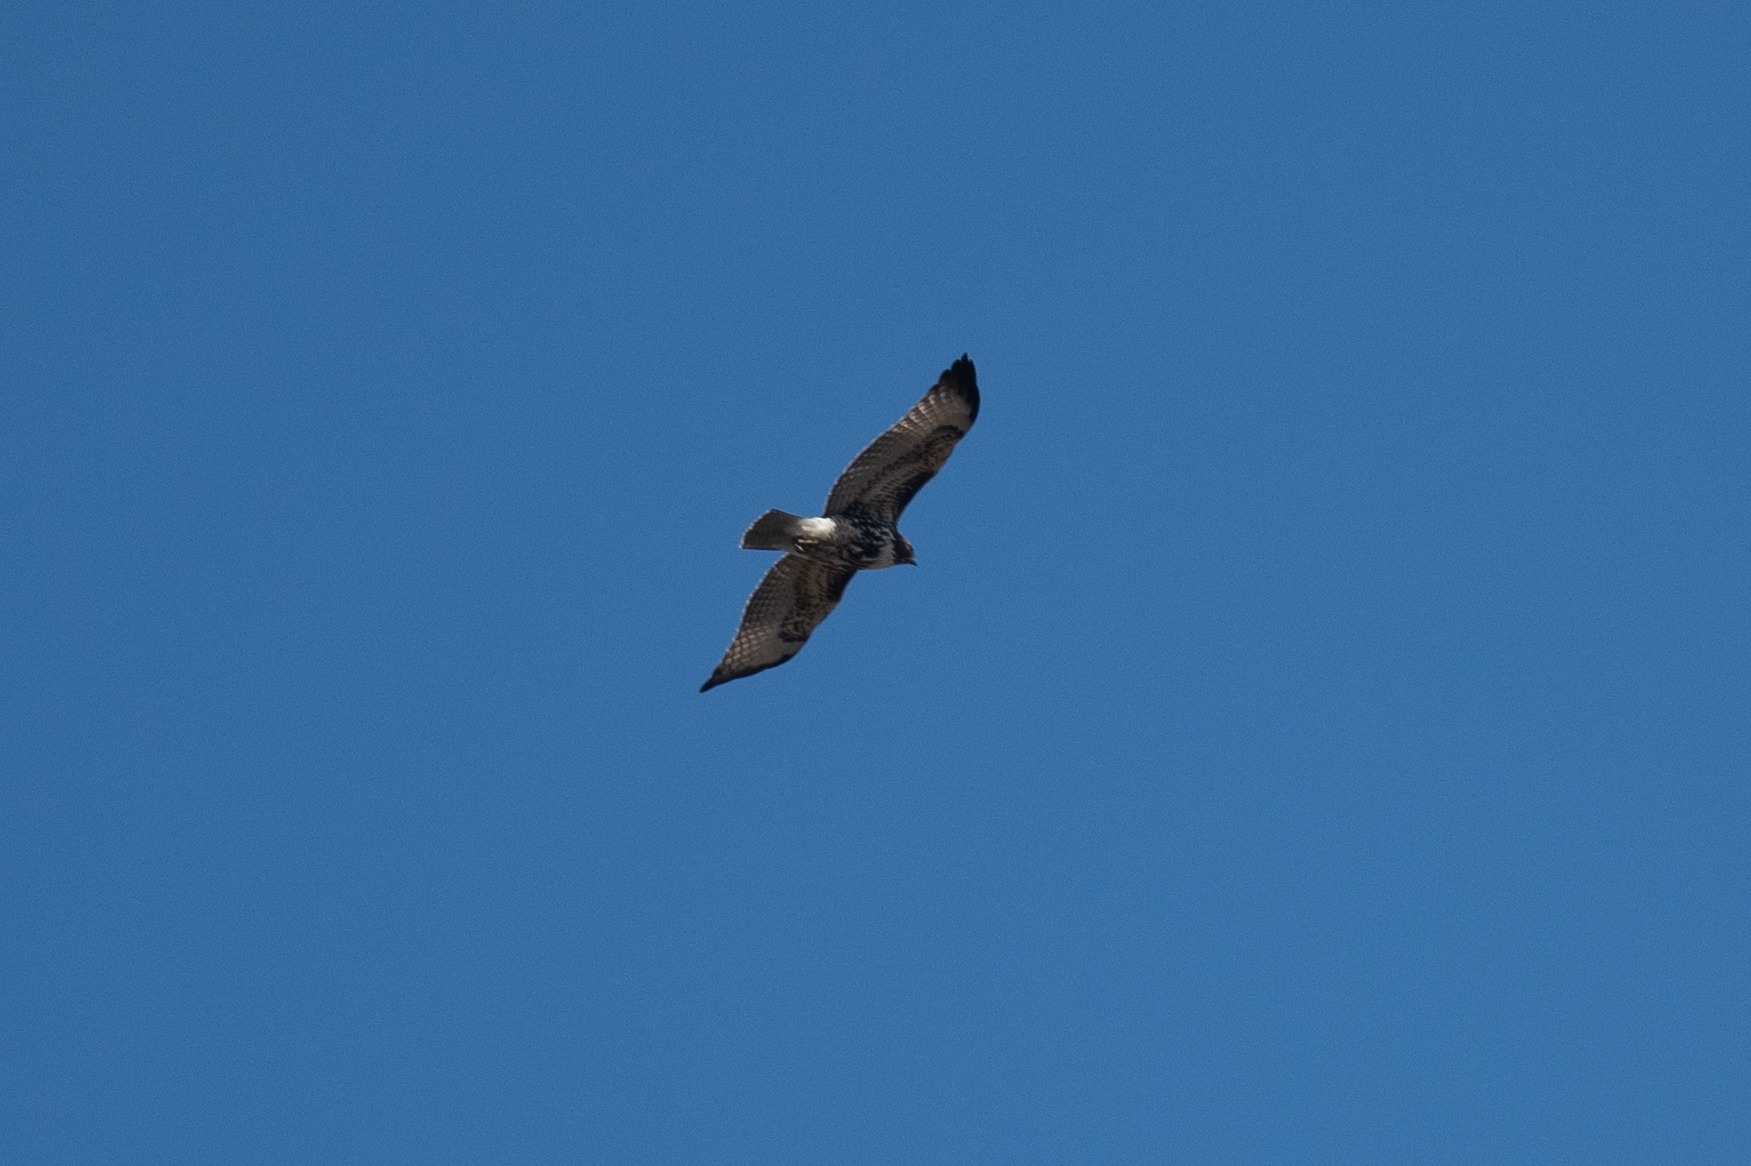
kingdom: Animalia
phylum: Chordata
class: Aves
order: Accipitriformes
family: Accipitridae
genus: Buteo
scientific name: Buteo jamaicensis
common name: Red-tailed hawk
